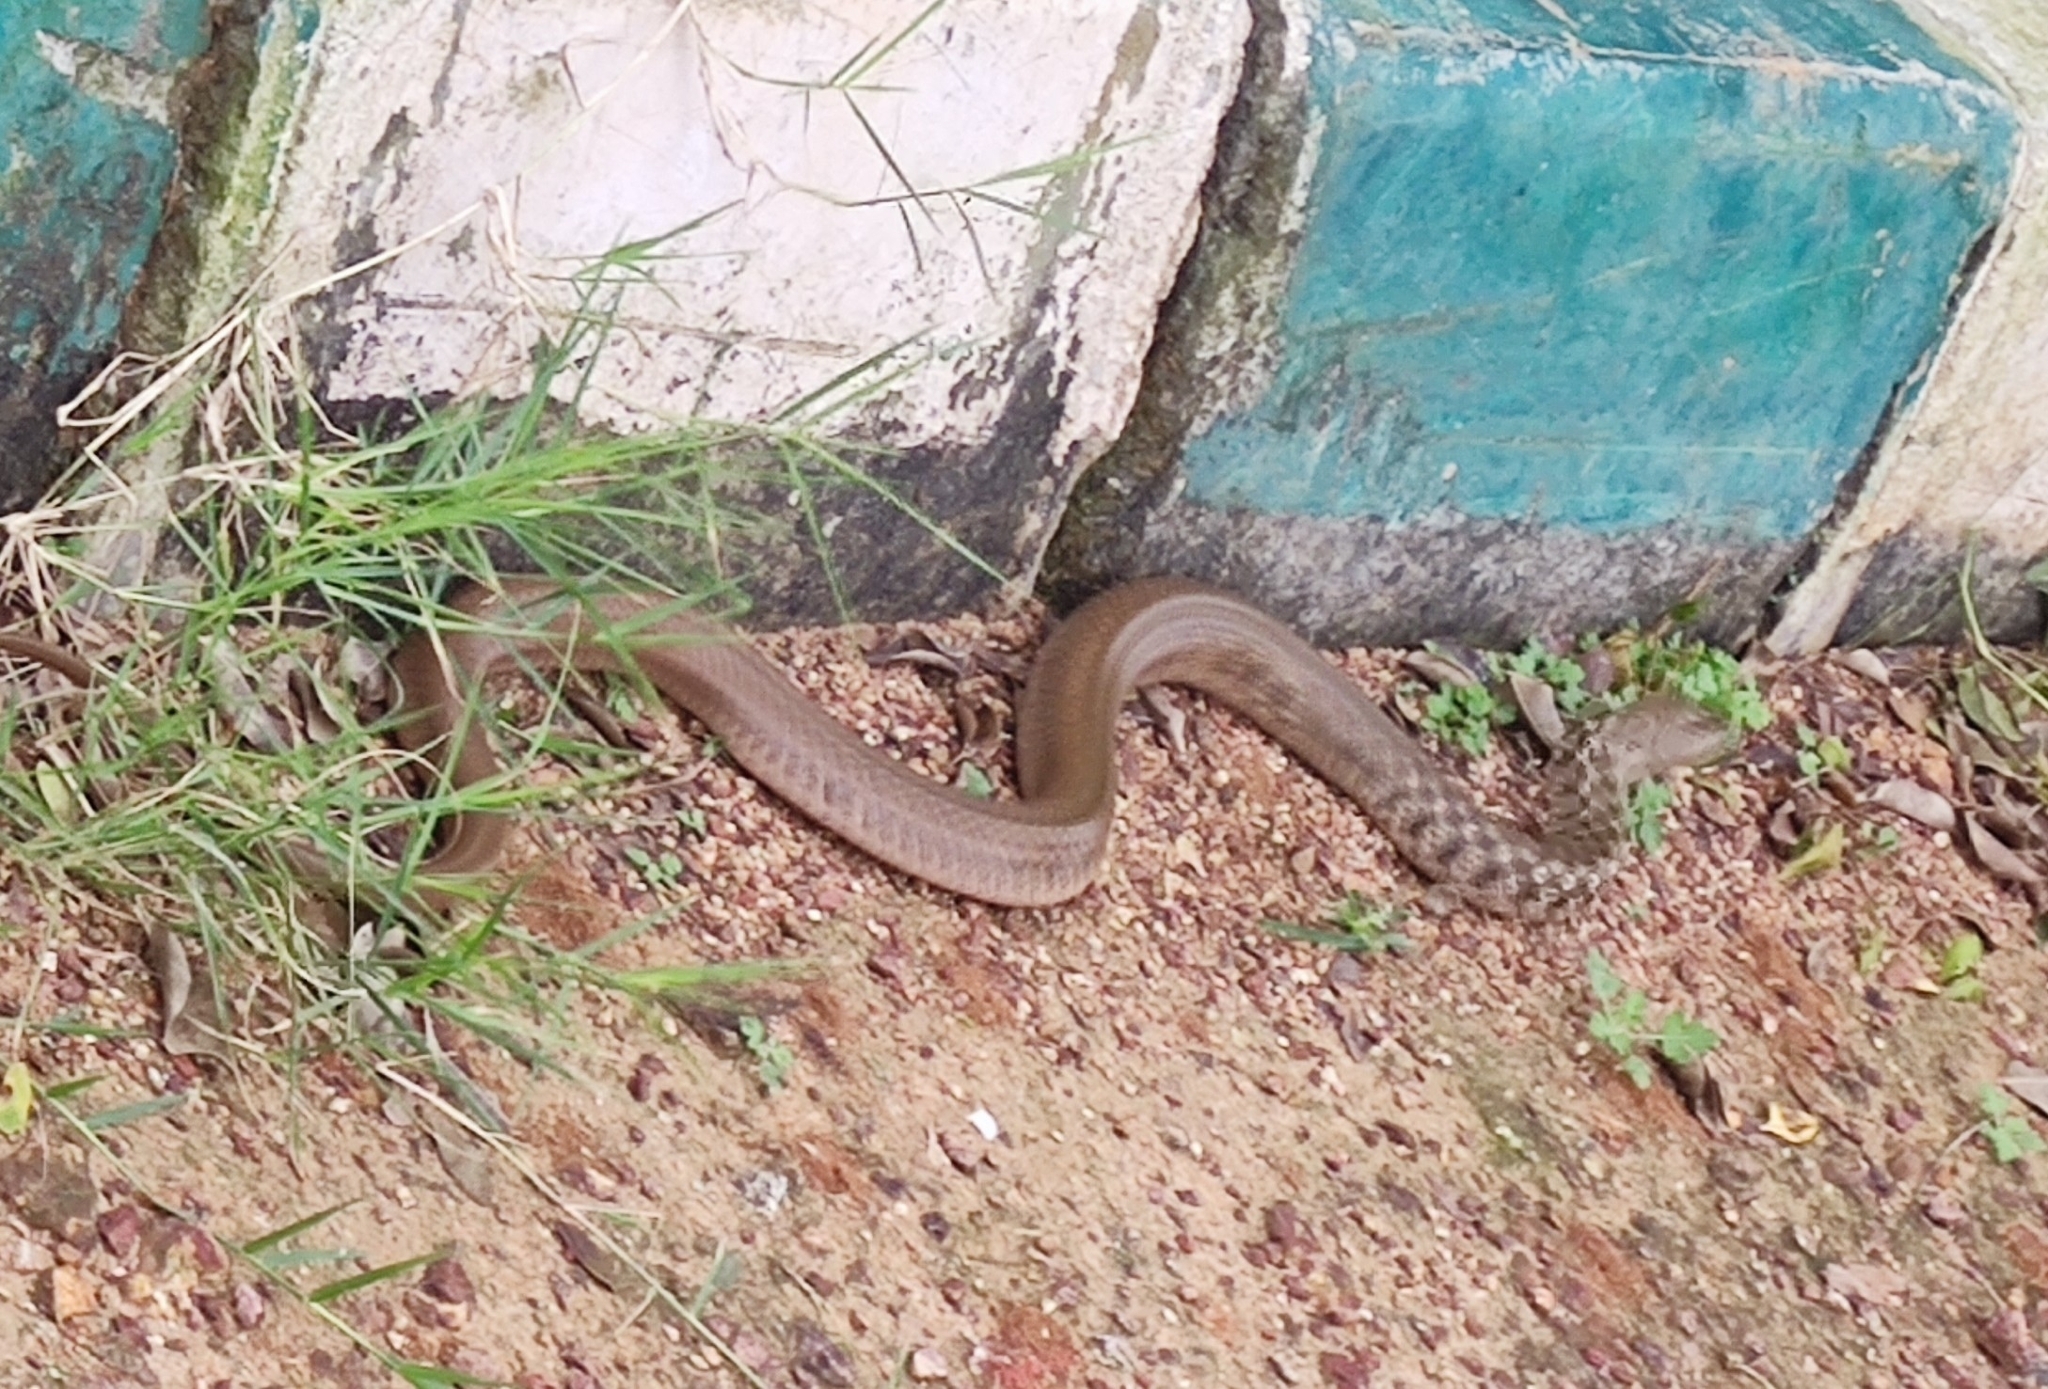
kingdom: Animalia
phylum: Chordata
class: Squamata
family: Colubridae
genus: Fowlea
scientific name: Fowlea piscator
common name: Asiatic water snake
